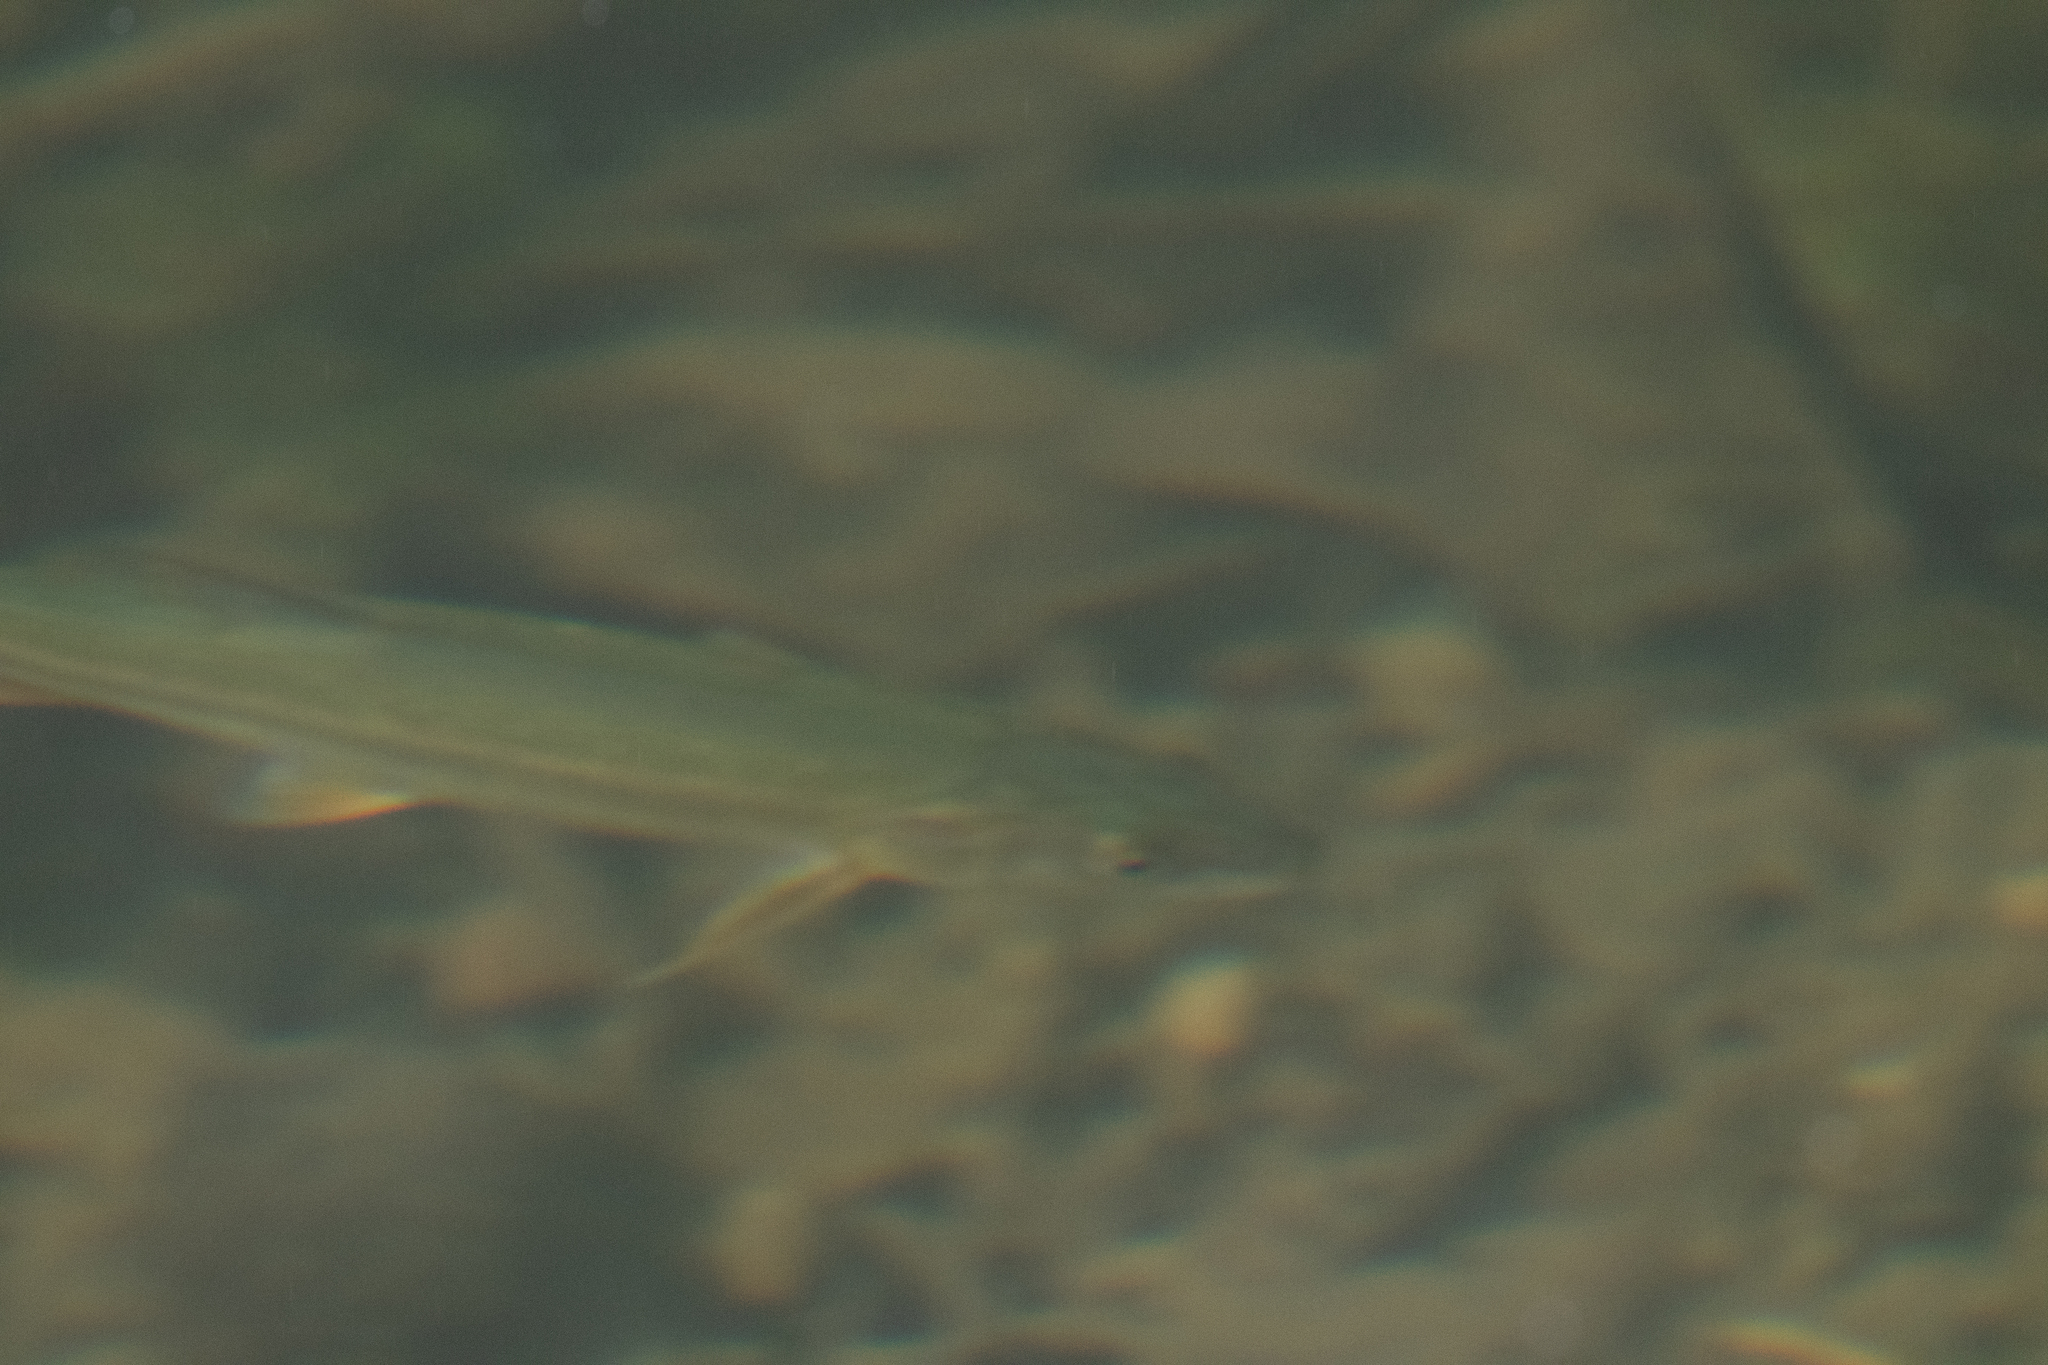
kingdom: Animalia
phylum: Chordata
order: Cypriniformes
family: Cyprinidae
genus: Ptychocheilus
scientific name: Ptychocheilus grandis
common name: Sacramento pikeminnow
